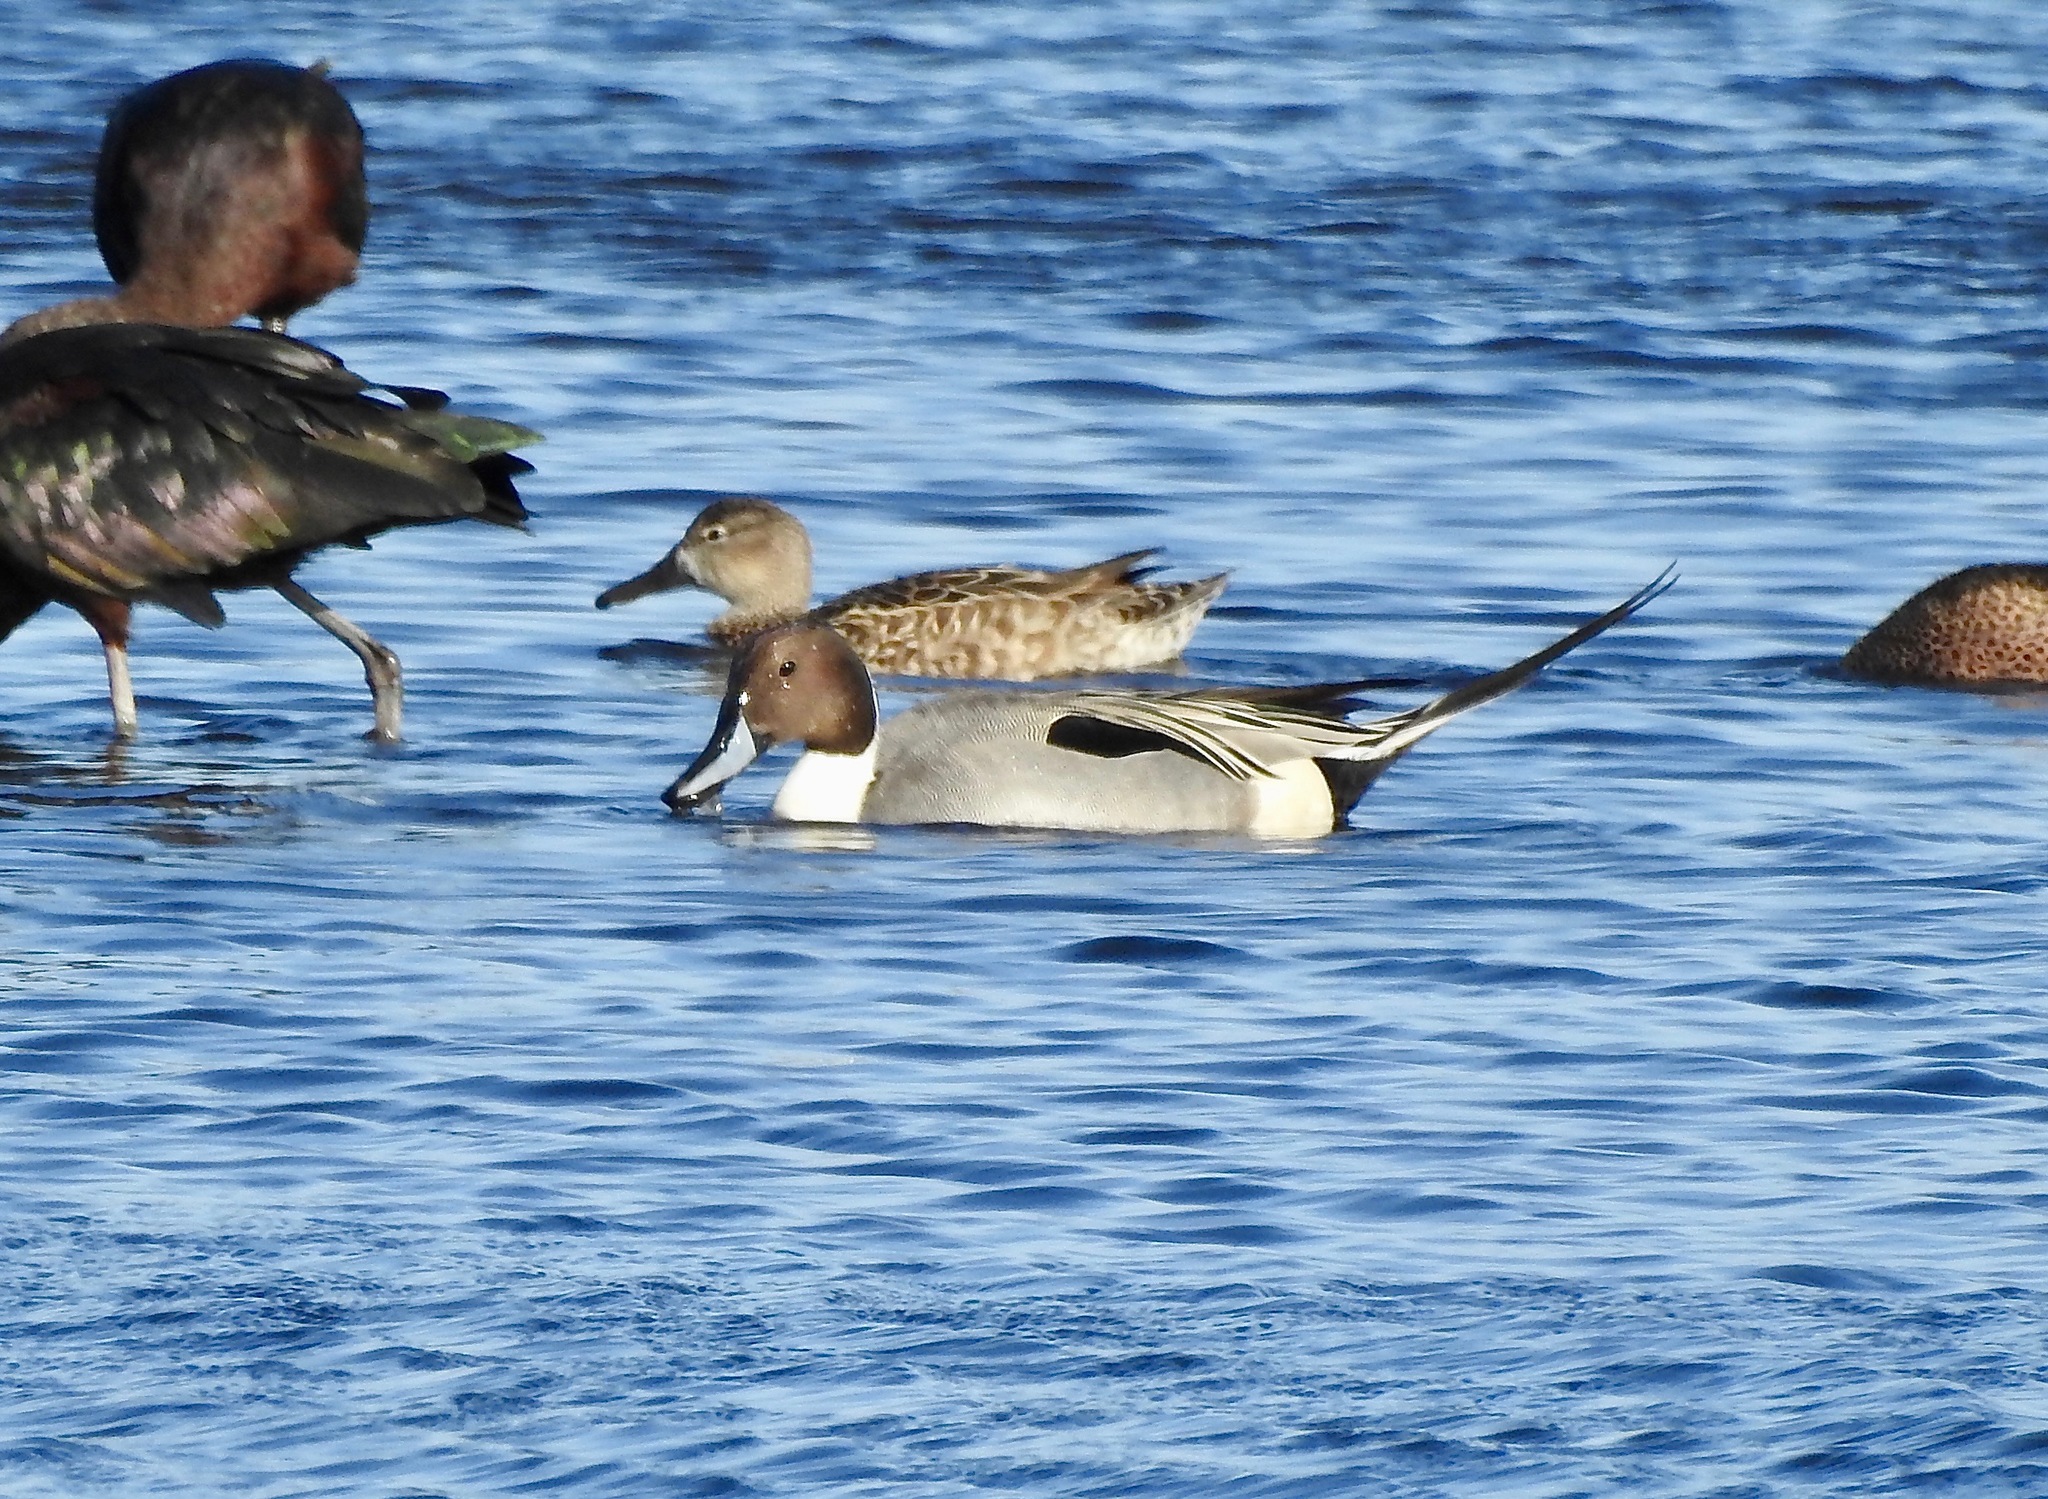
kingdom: Animalia
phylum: Chordata
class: Aves
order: Anseriformes
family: Anatidae
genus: Anas
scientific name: Anas acuta
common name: Northern pintail
